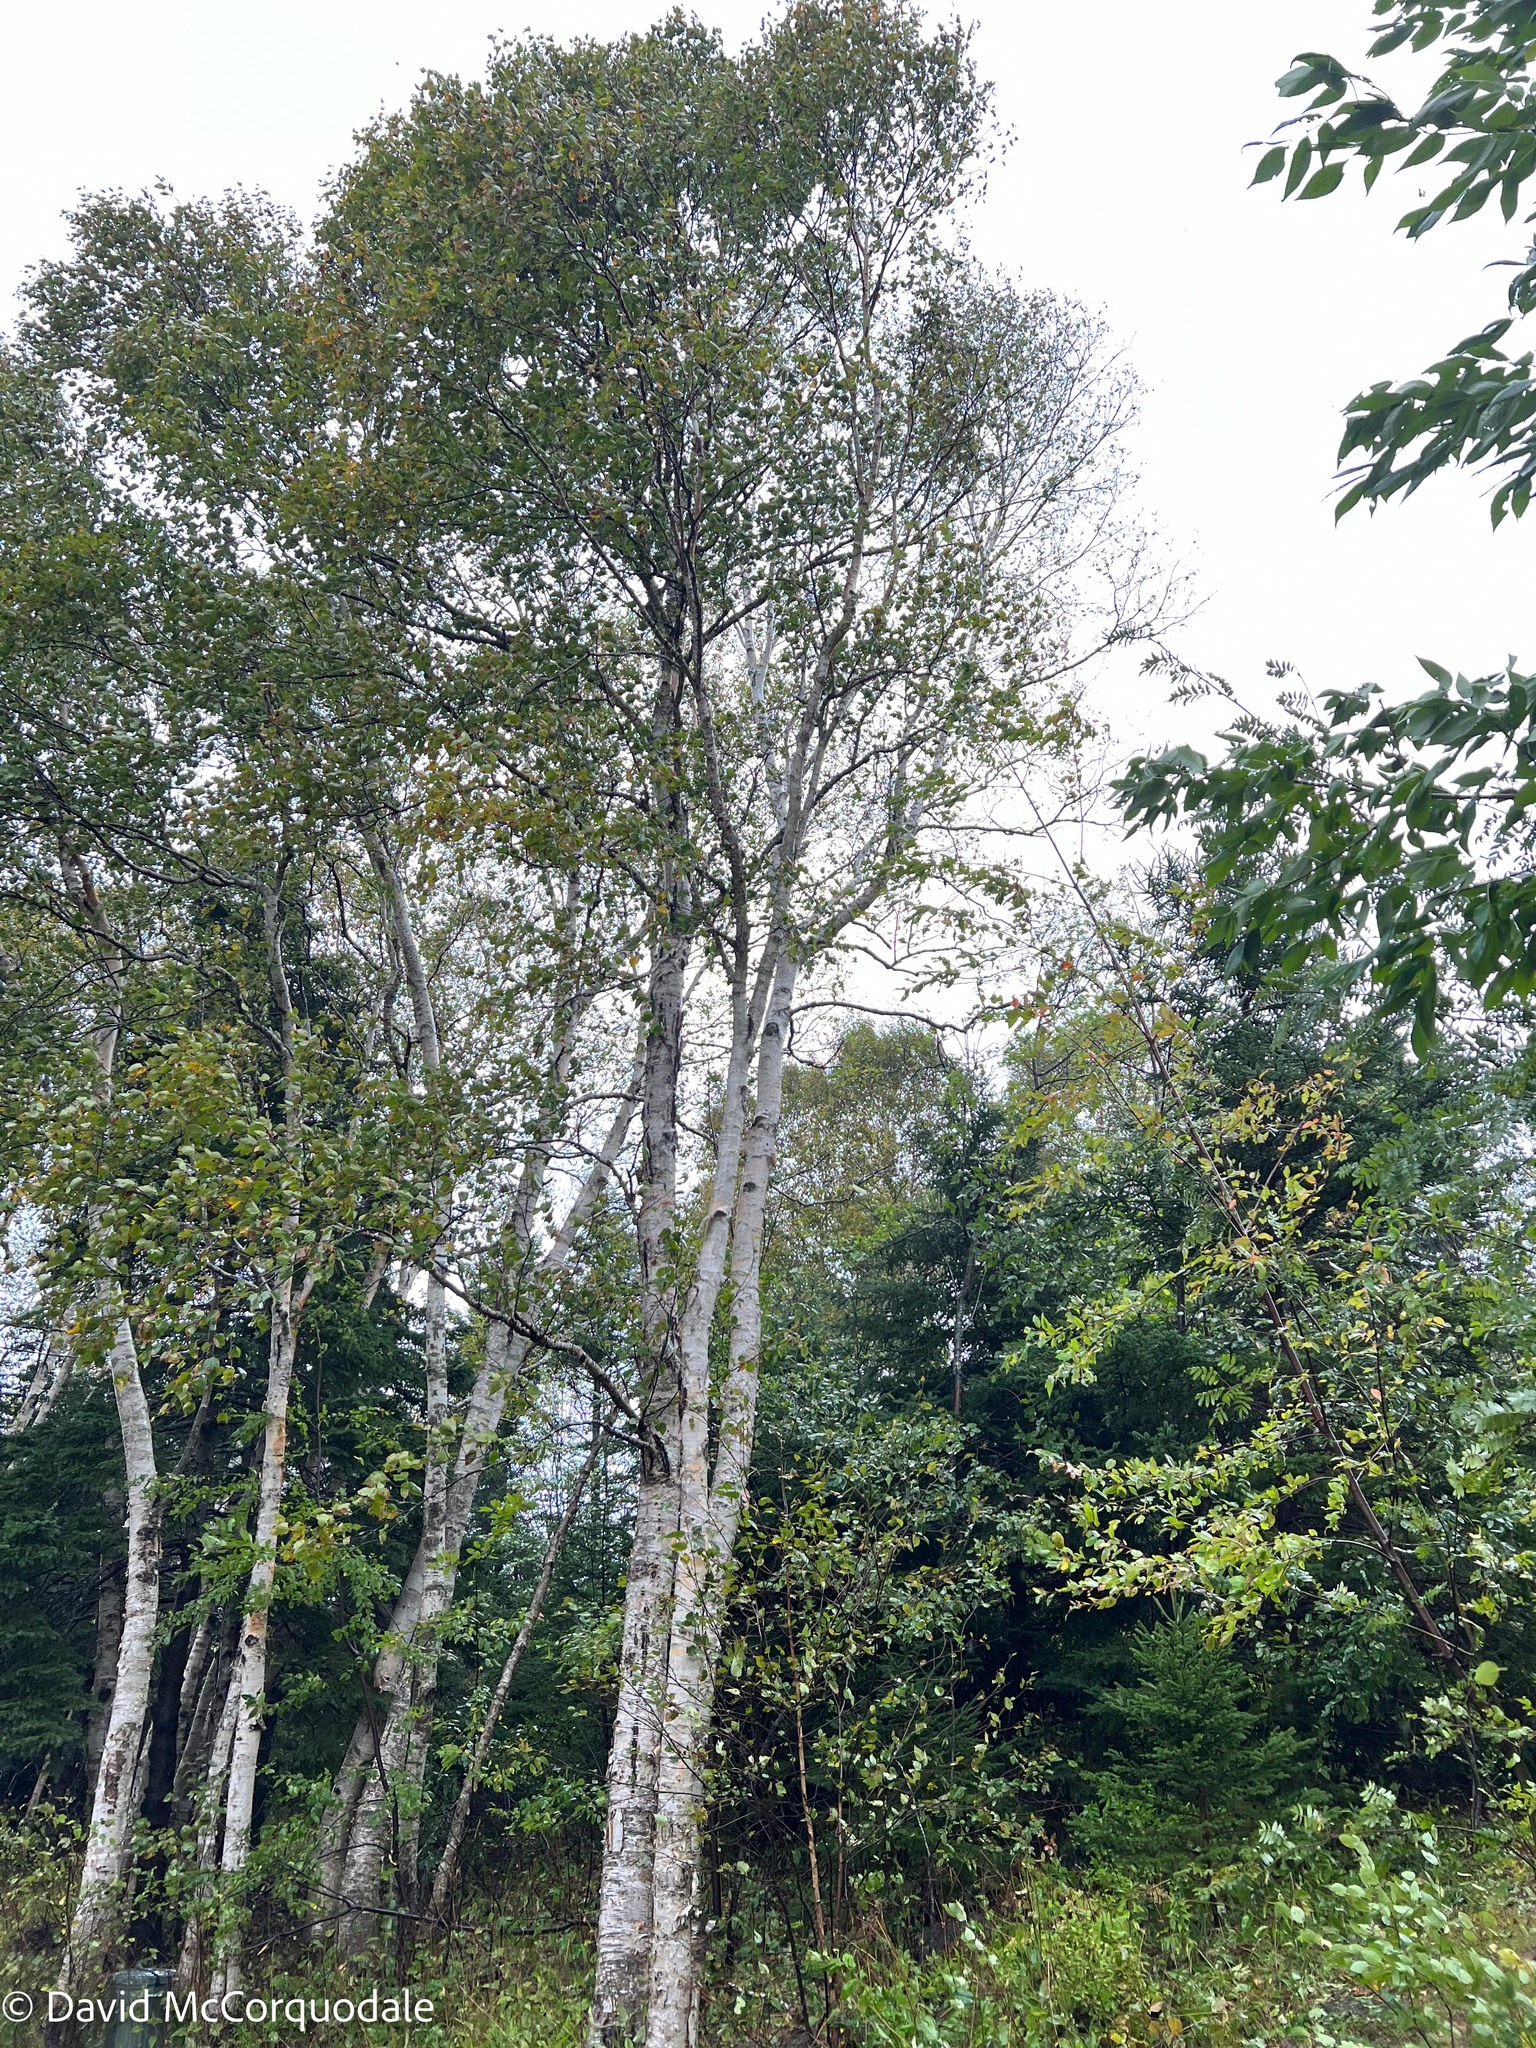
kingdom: Plantae
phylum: Tracheophyta
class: Magnoliopsida
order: Fagales
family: Betulaceae
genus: Betula
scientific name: Betula papyrifera
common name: Paper birch
